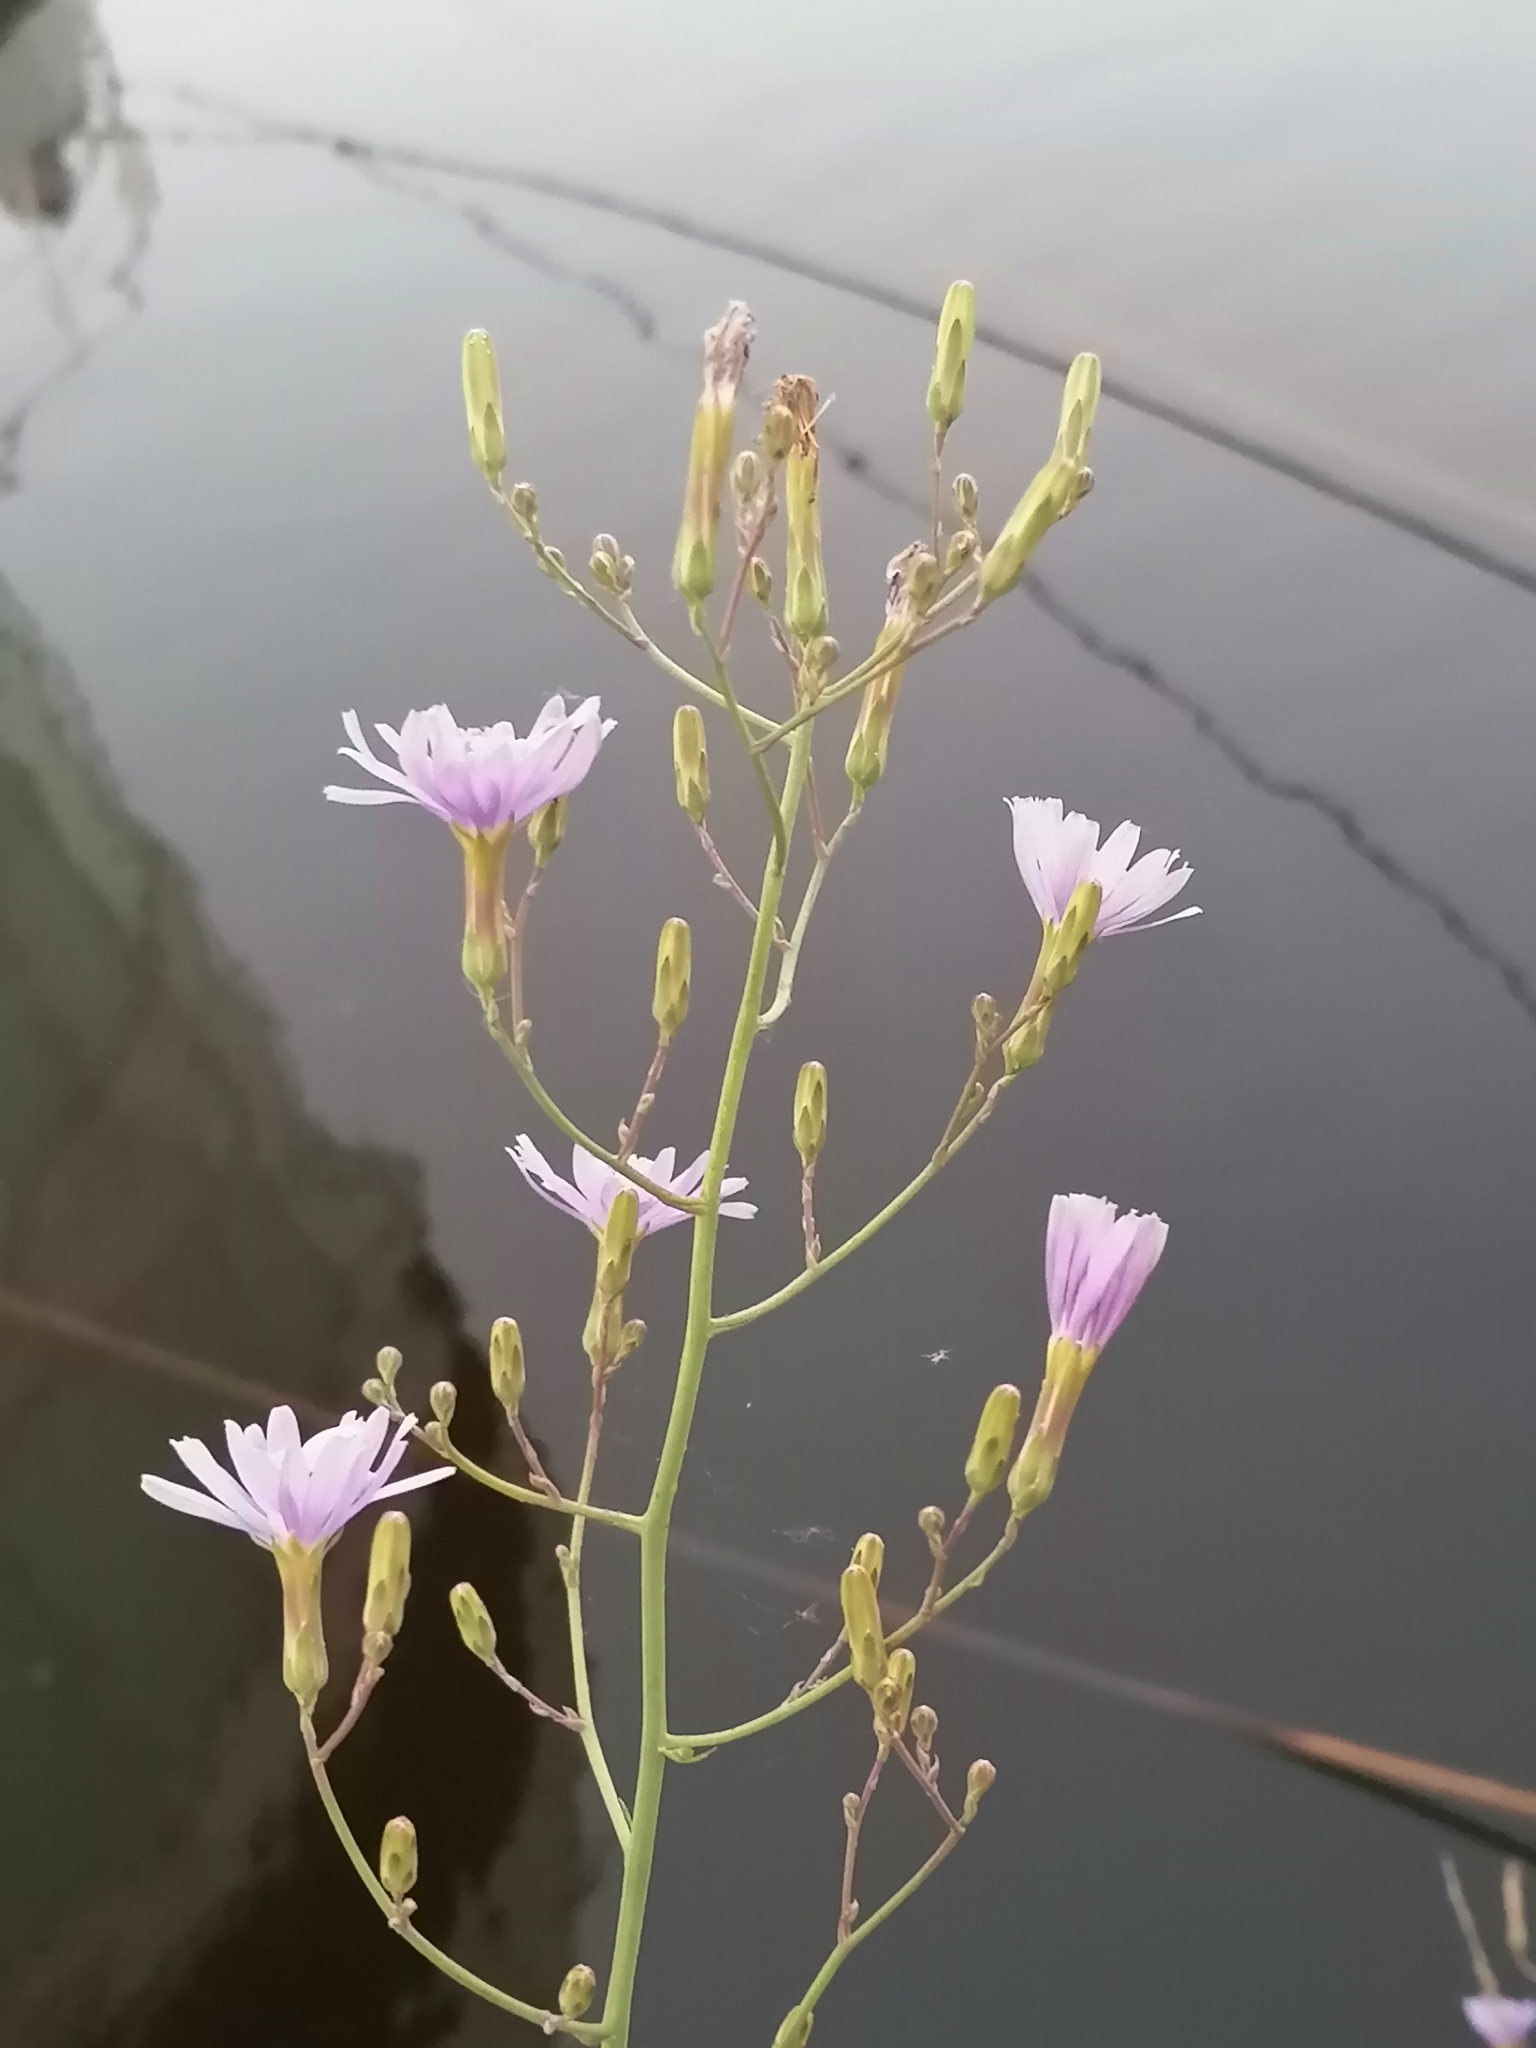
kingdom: Plantae
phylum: Tracheophyta
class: Magnoliopsida
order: Asterales
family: Asteraceae
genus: Lactuca
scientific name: Lactuca tatarica
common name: Blue lettuce
